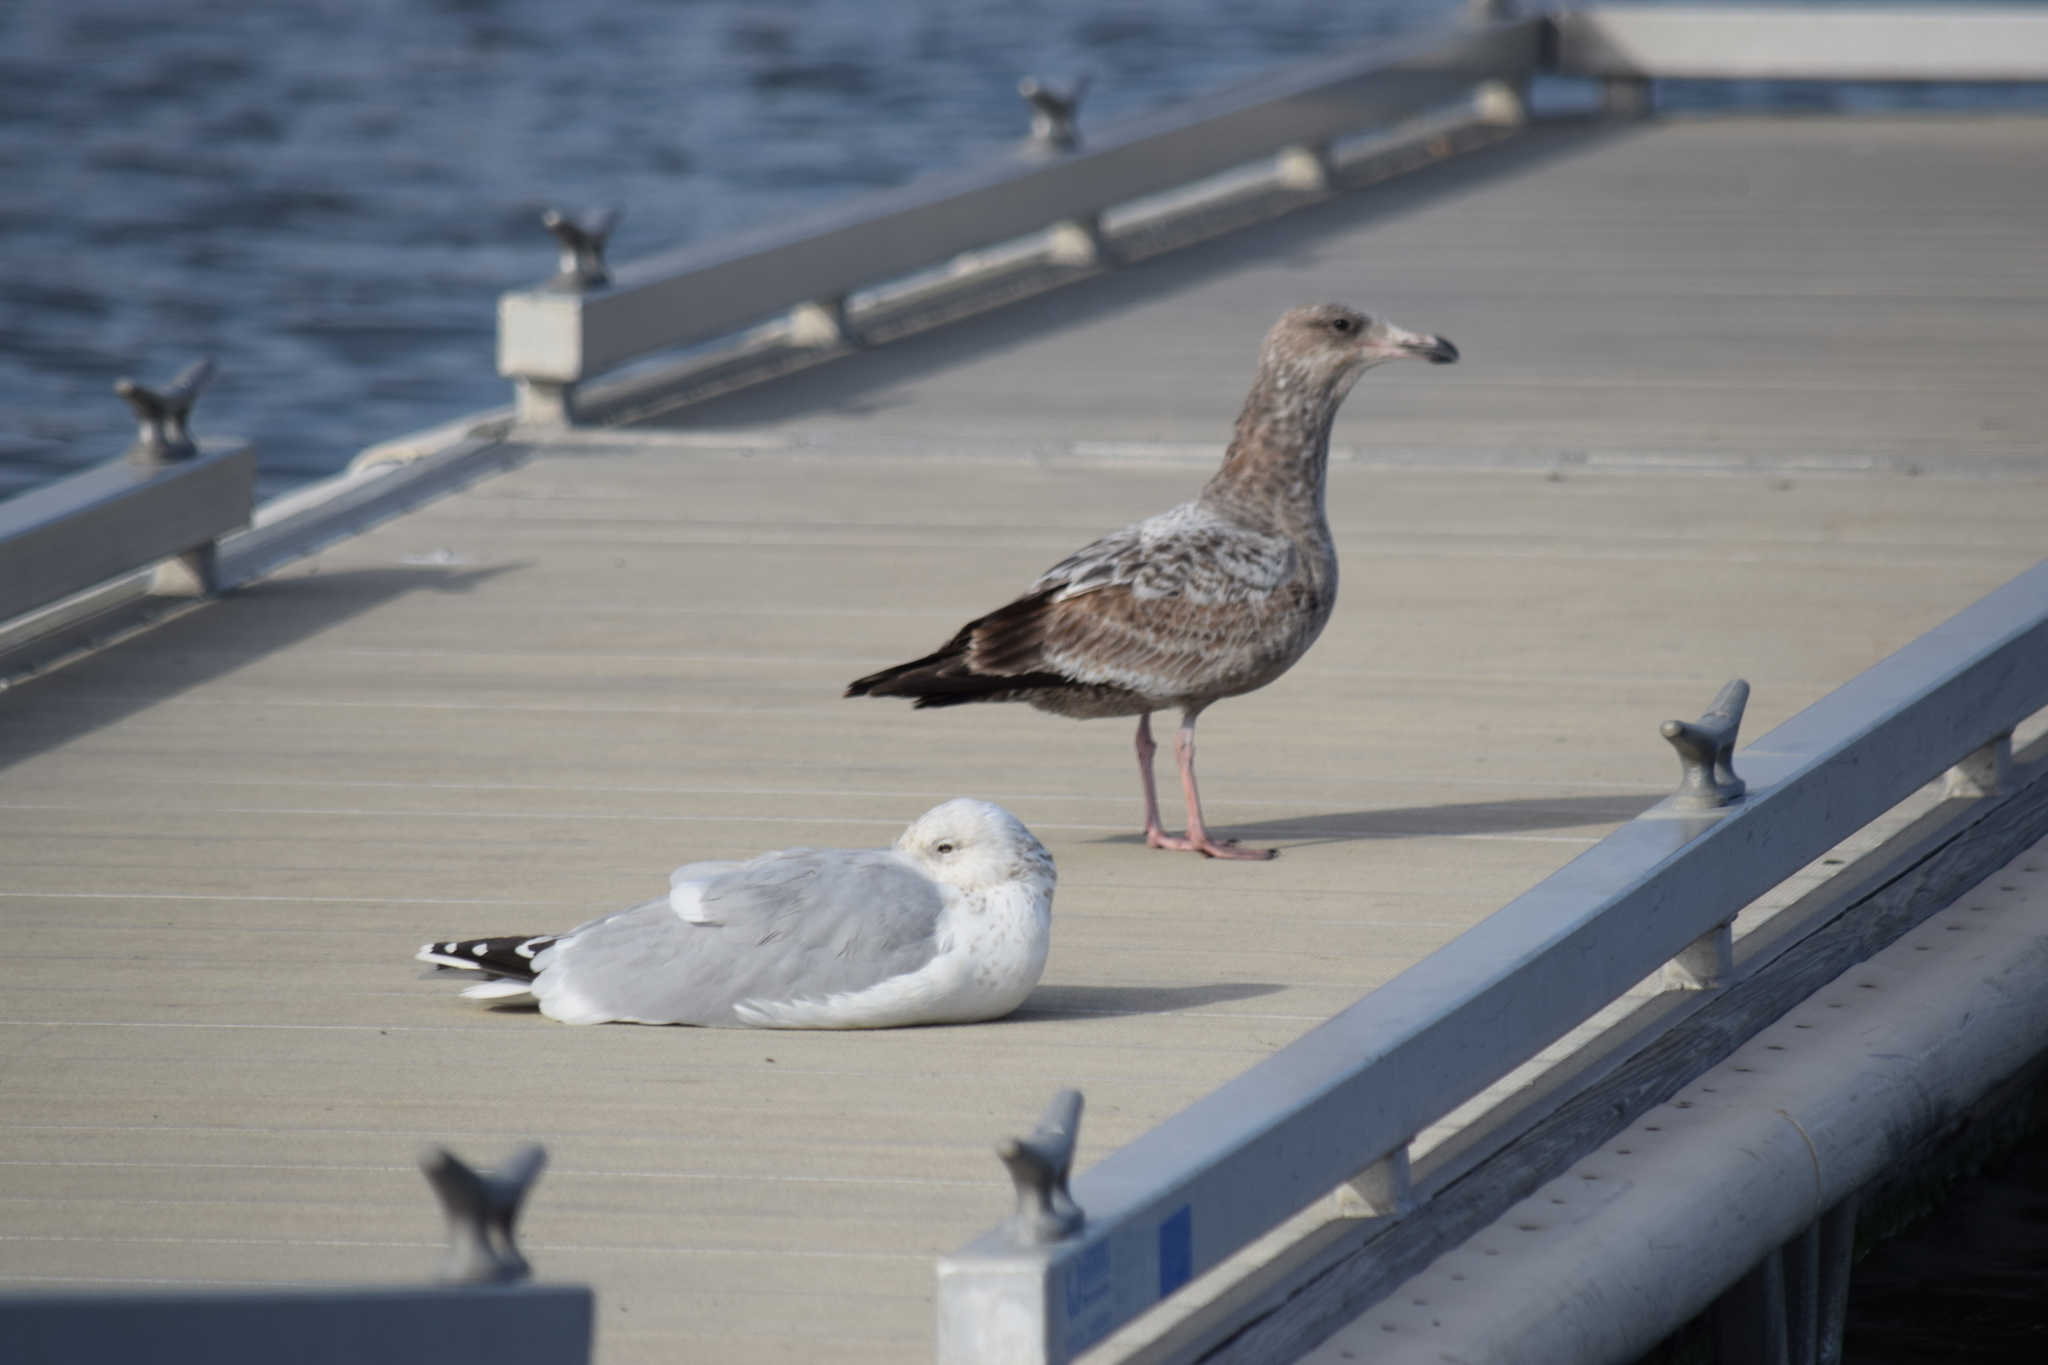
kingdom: Animalia
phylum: Chordata
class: Aves
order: Charadriiformes
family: Laridae
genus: Larus
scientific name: Larus argentatus
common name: Herring gull
